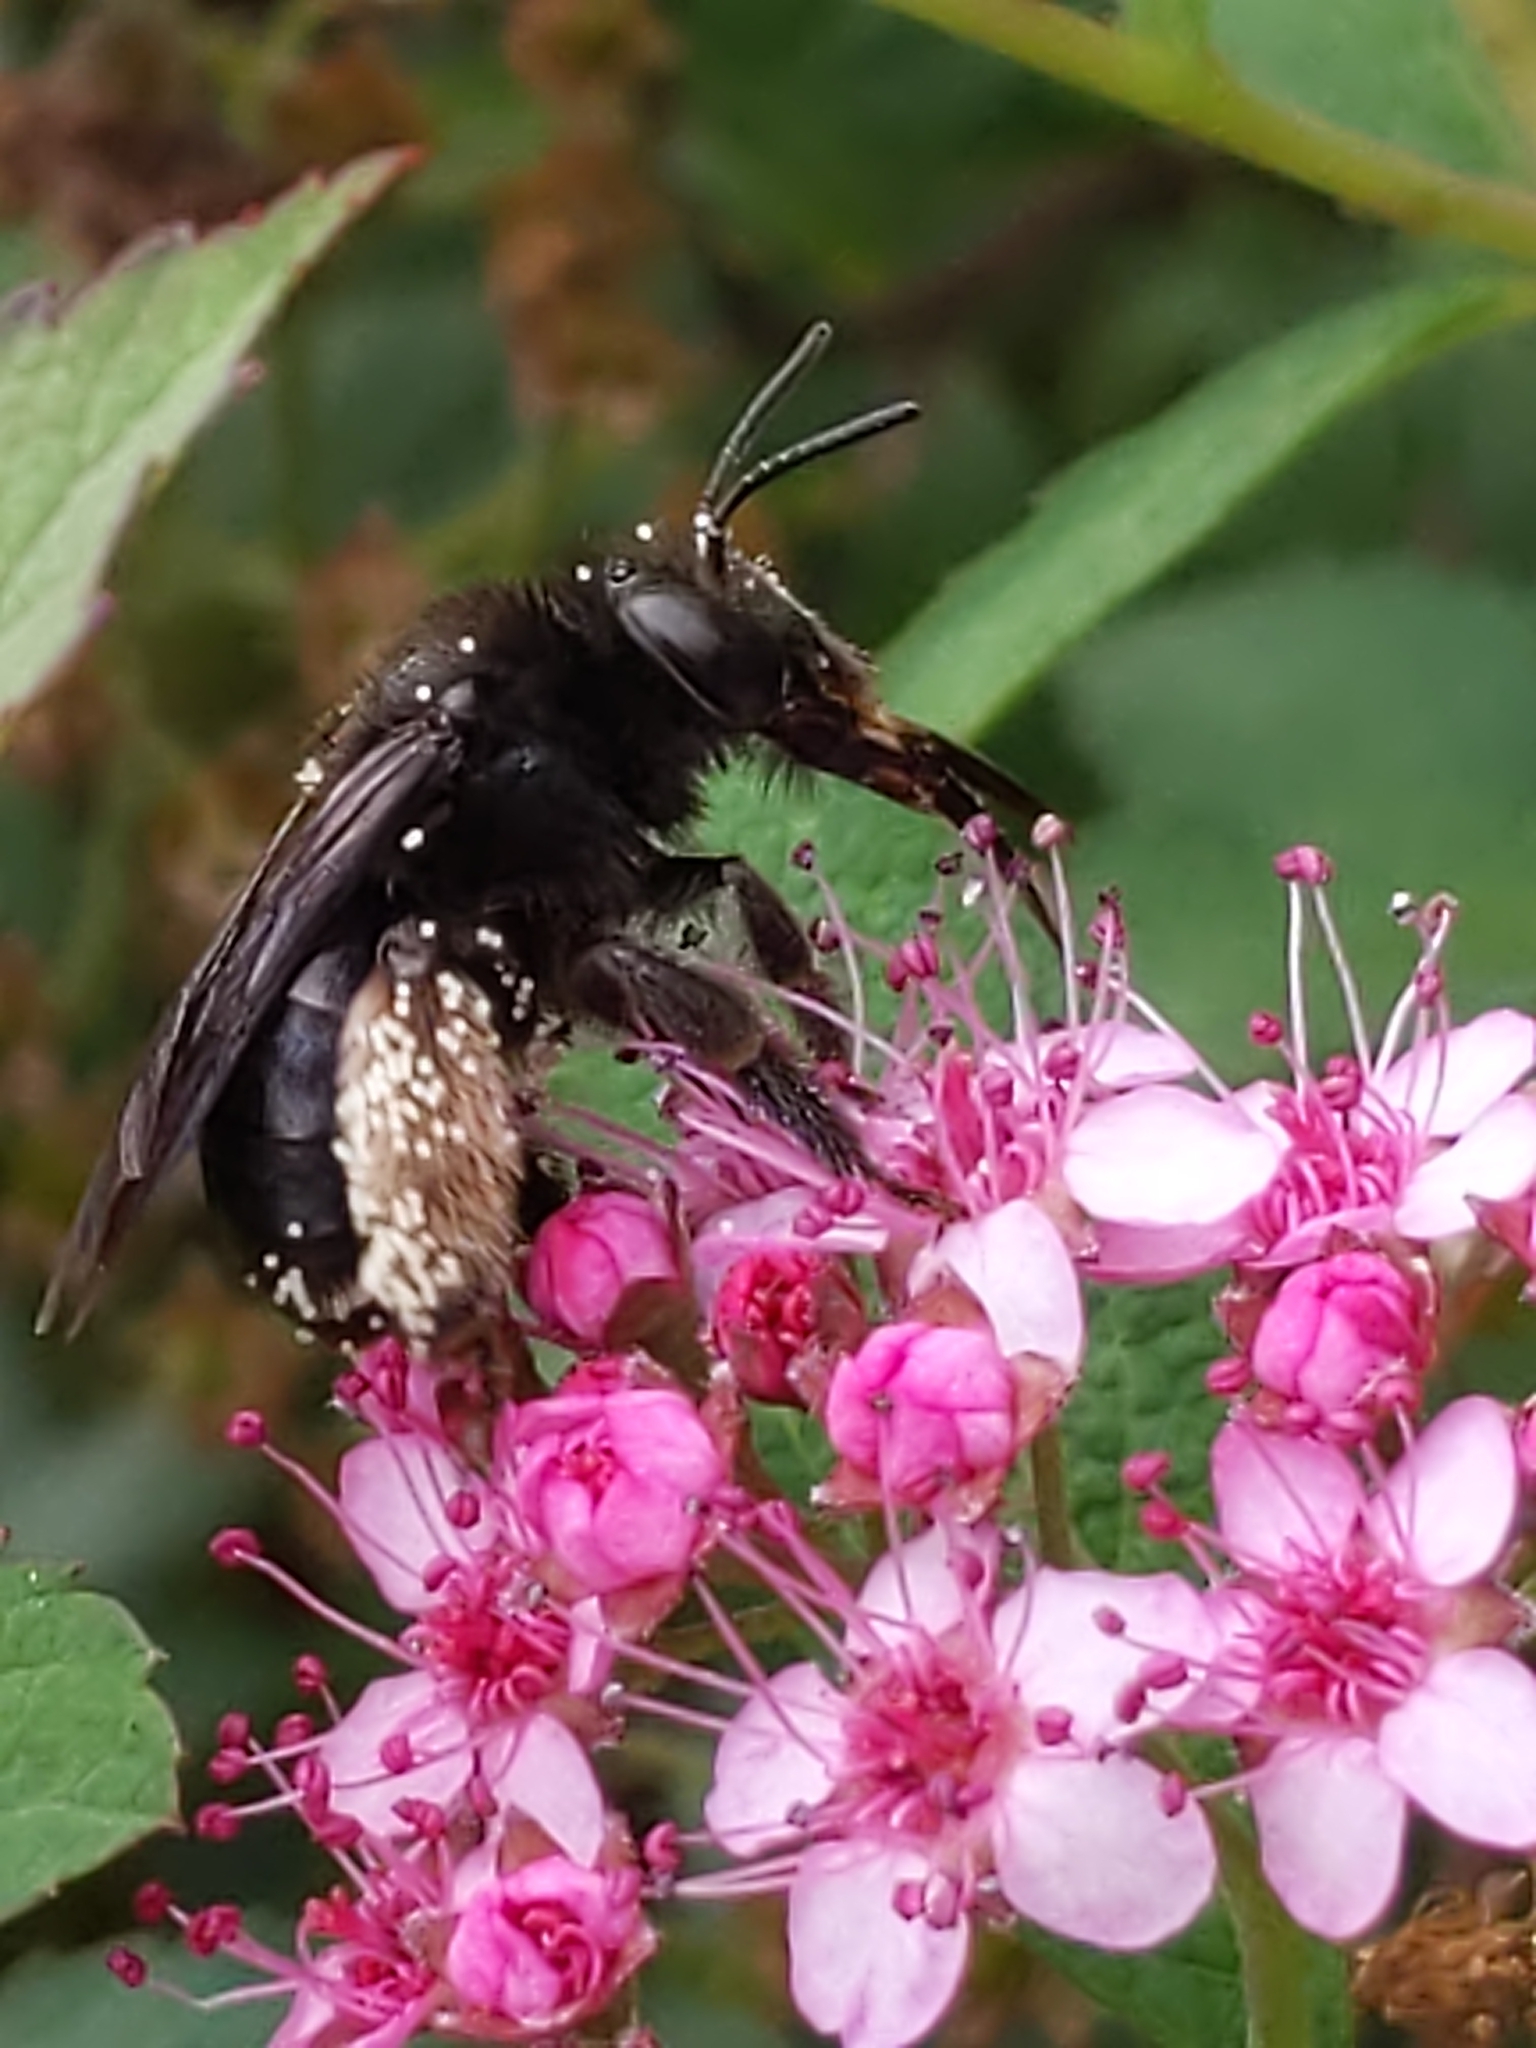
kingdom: Animalia
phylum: Arthropoda
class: Insecta
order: Hymenoptera
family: Apidae
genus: Melissodes
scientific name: Melissodes bimaculatus
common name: Two-spotted long-horned bee
